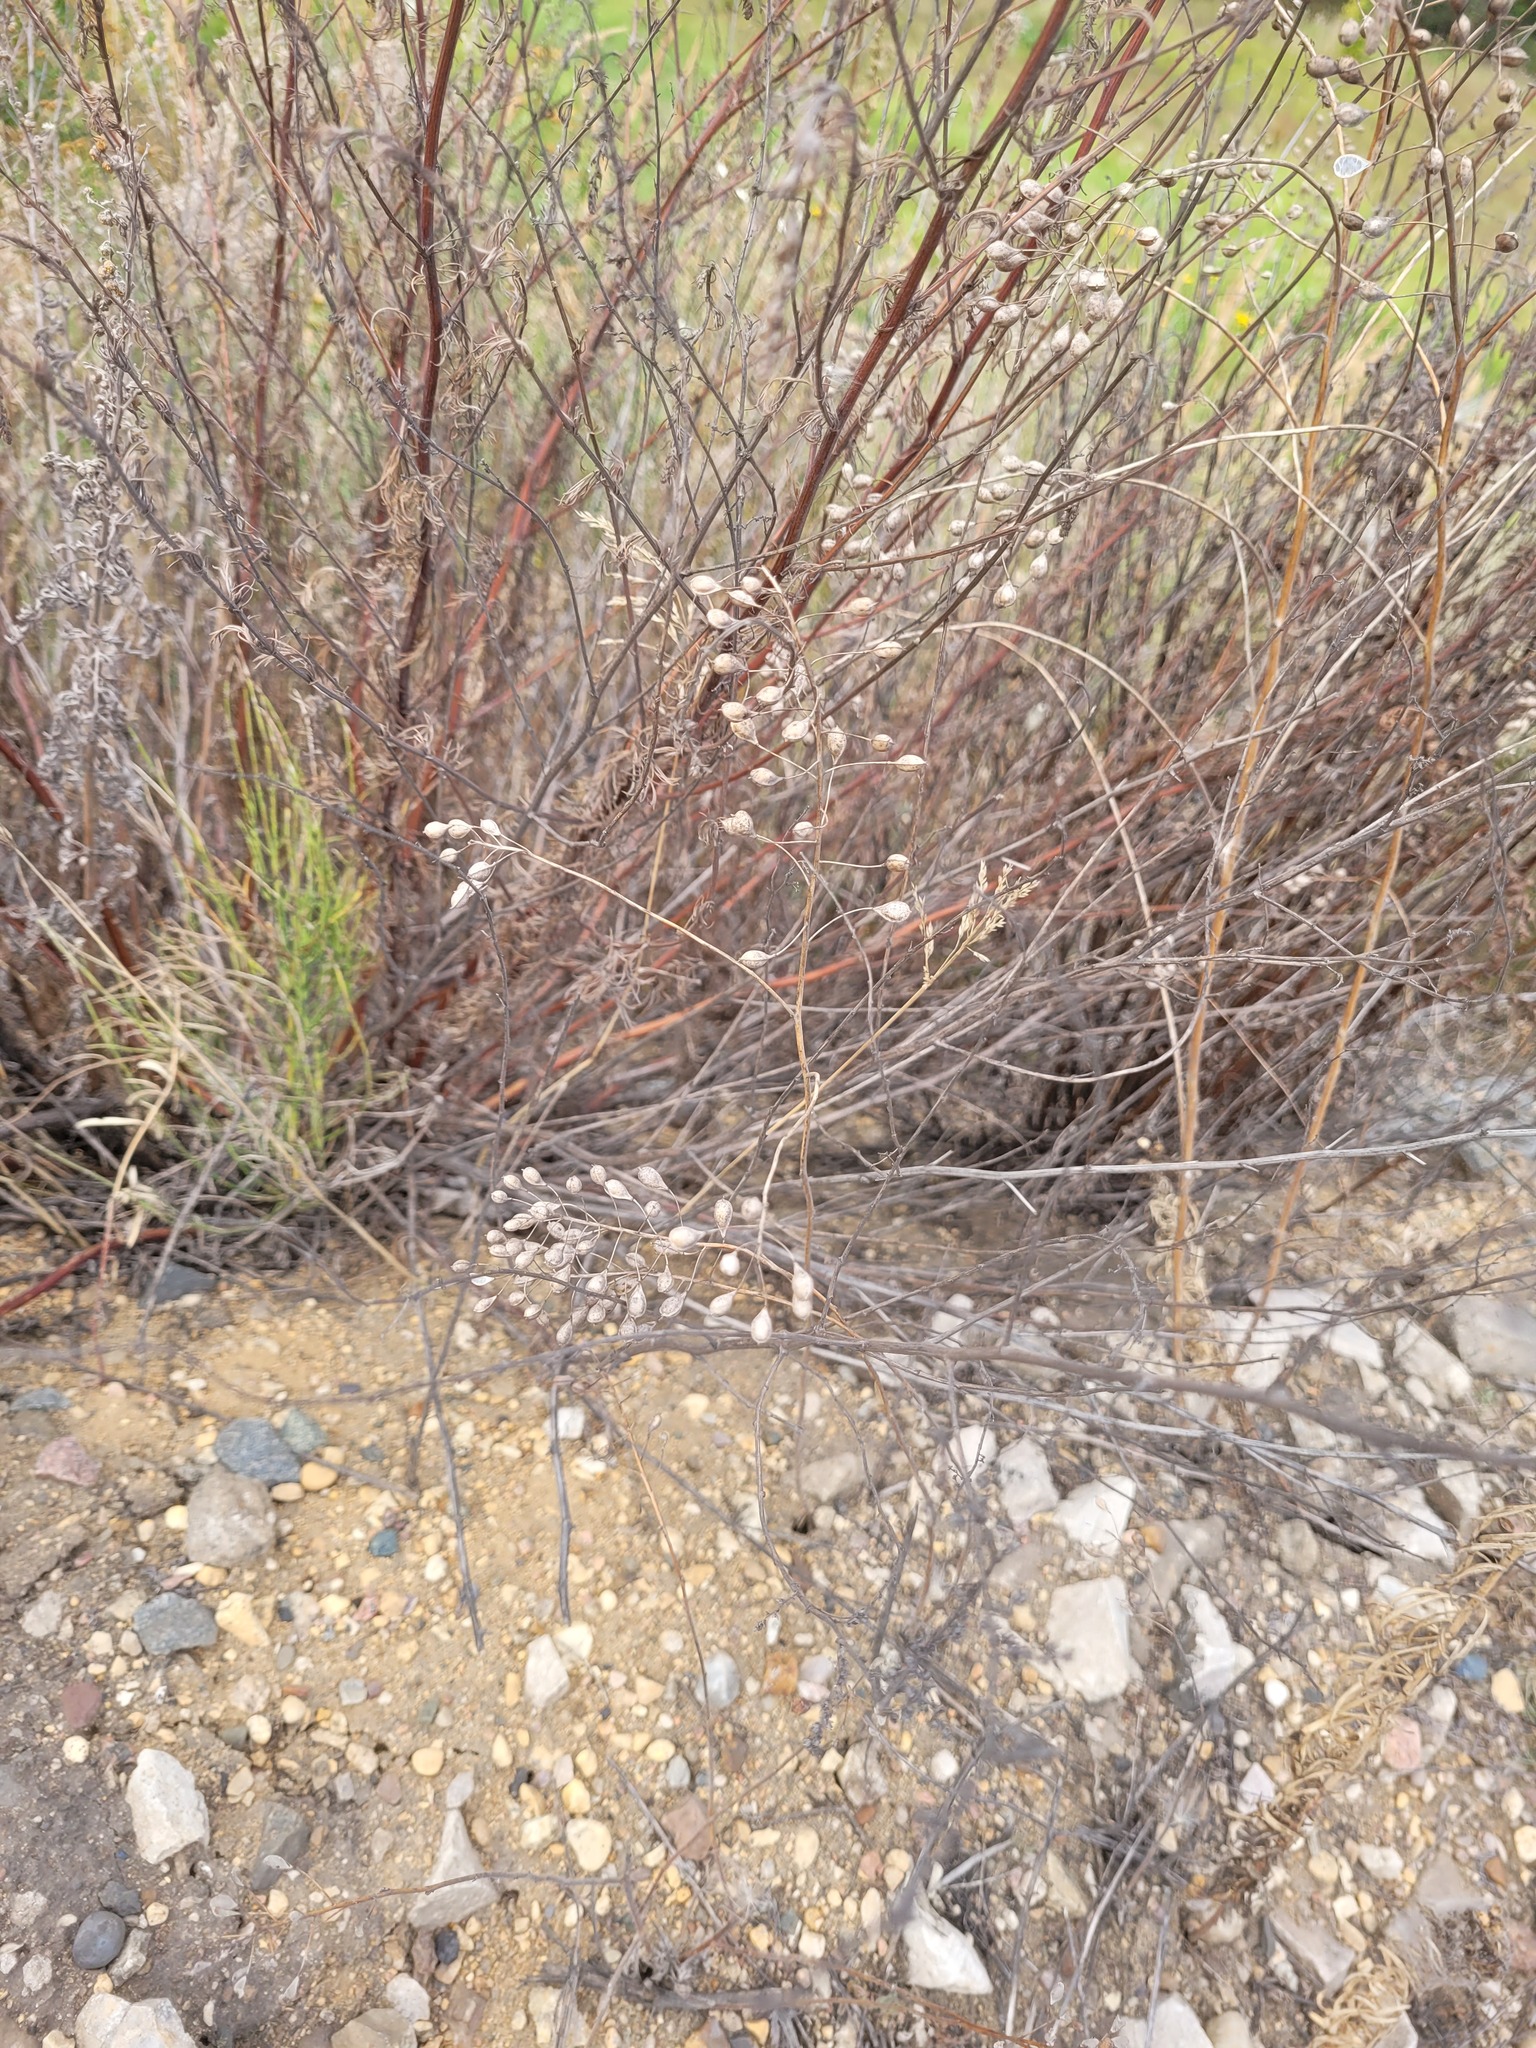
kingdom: Plantae
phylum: Tracheophyta
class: Magnoliopsida
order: Brassicales
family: Brassicaceae
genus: Camelina
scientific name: Camelina sativa
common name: Gold-of-pleasure
